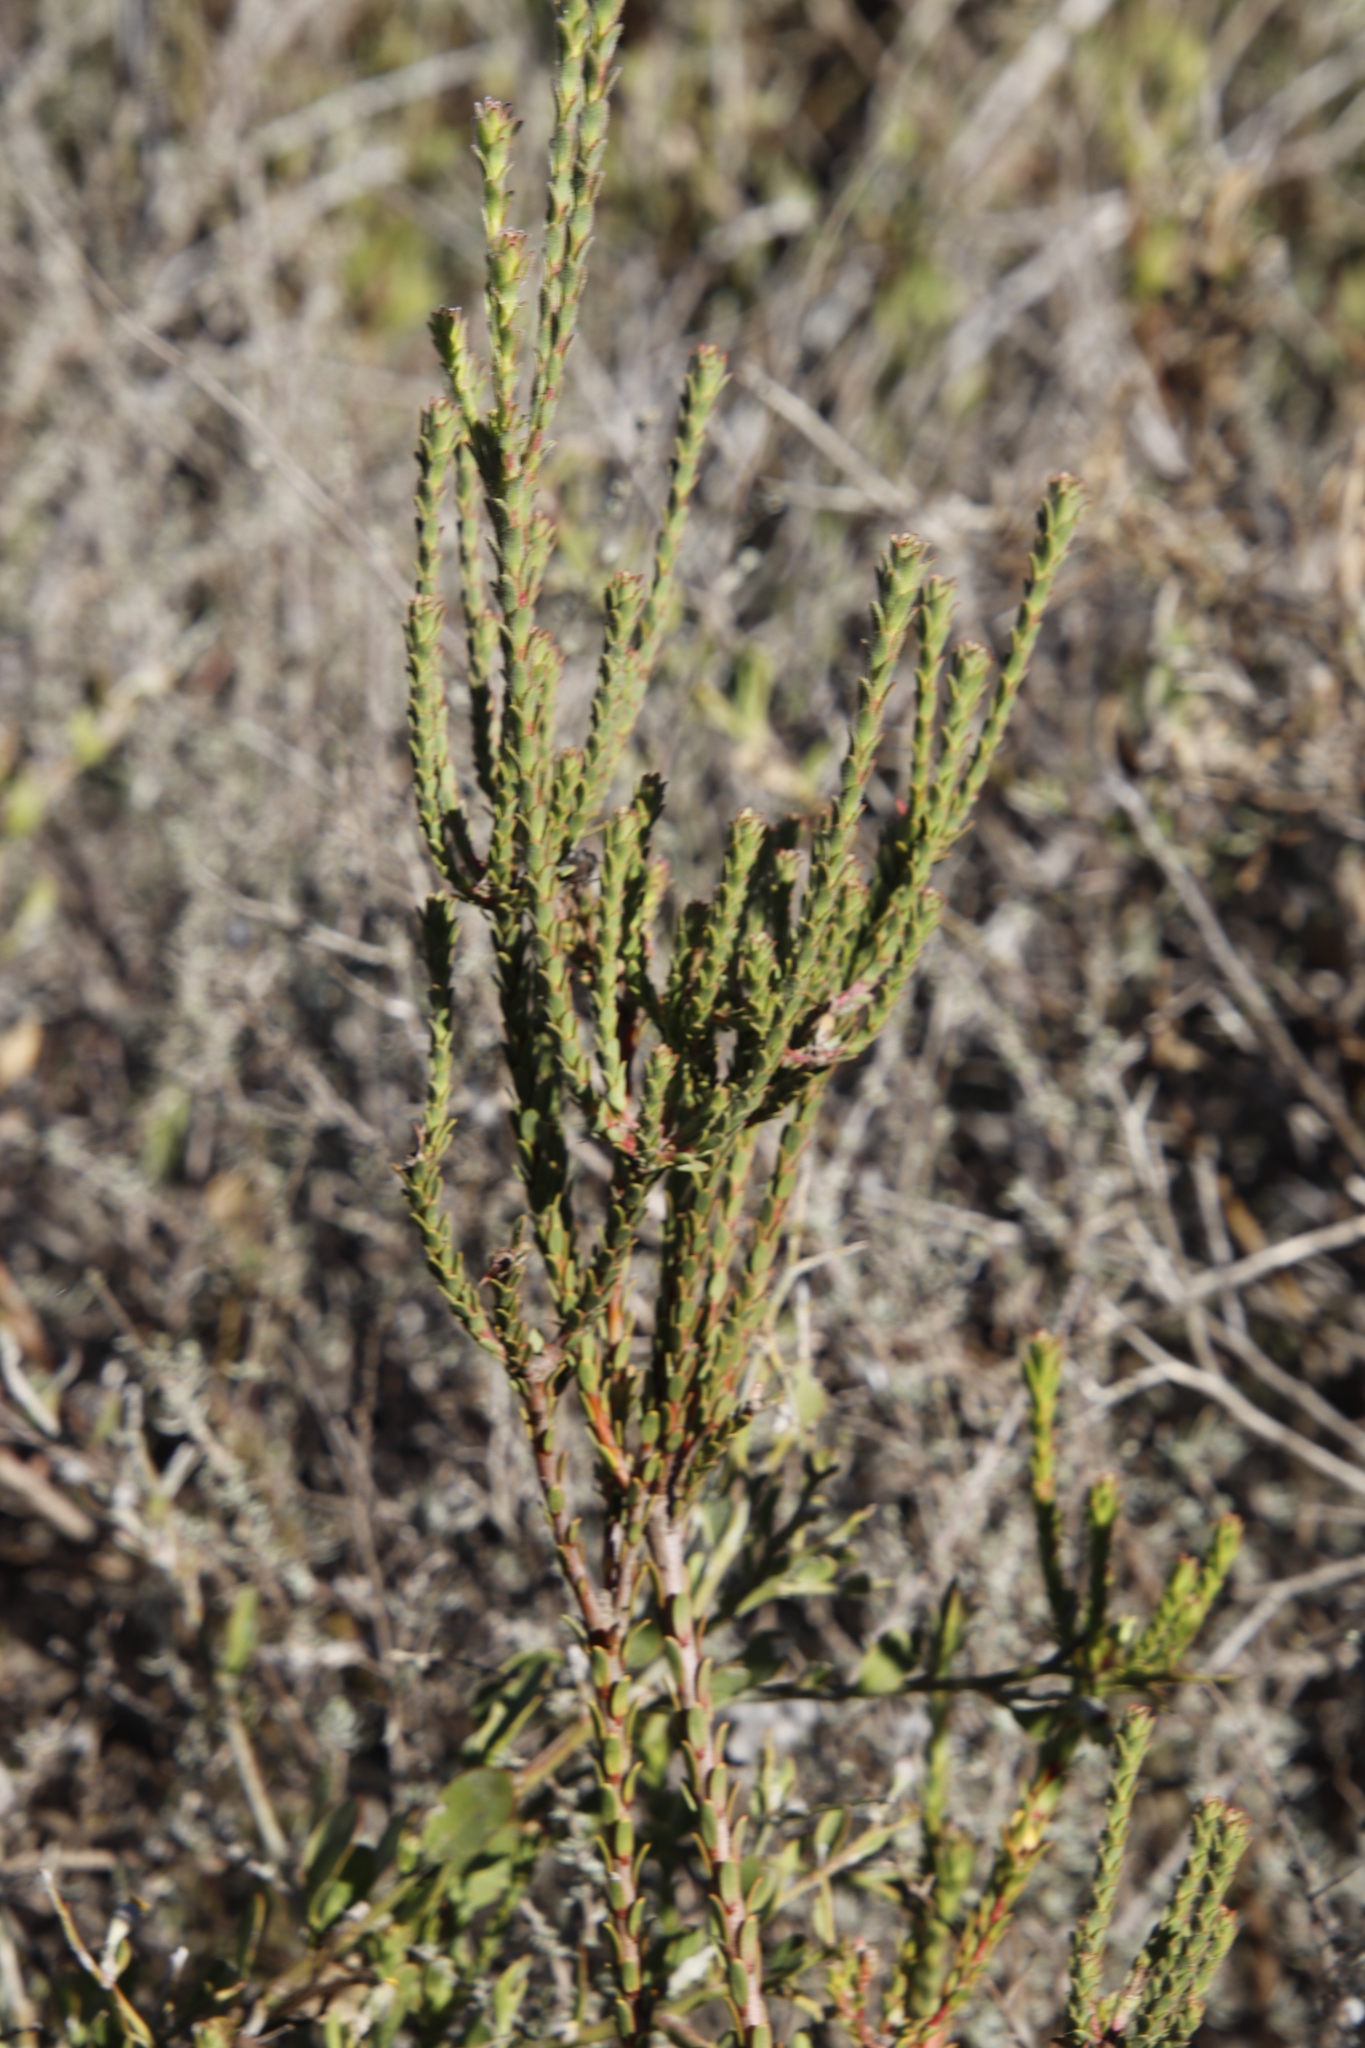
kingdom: Plantae
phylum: Tracheophyta
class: Magnoliopsida
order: Proteales
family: Proteaceae
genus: Leucadendron
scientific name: Leucadendron thymifolium
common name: Malmesbury conebush
